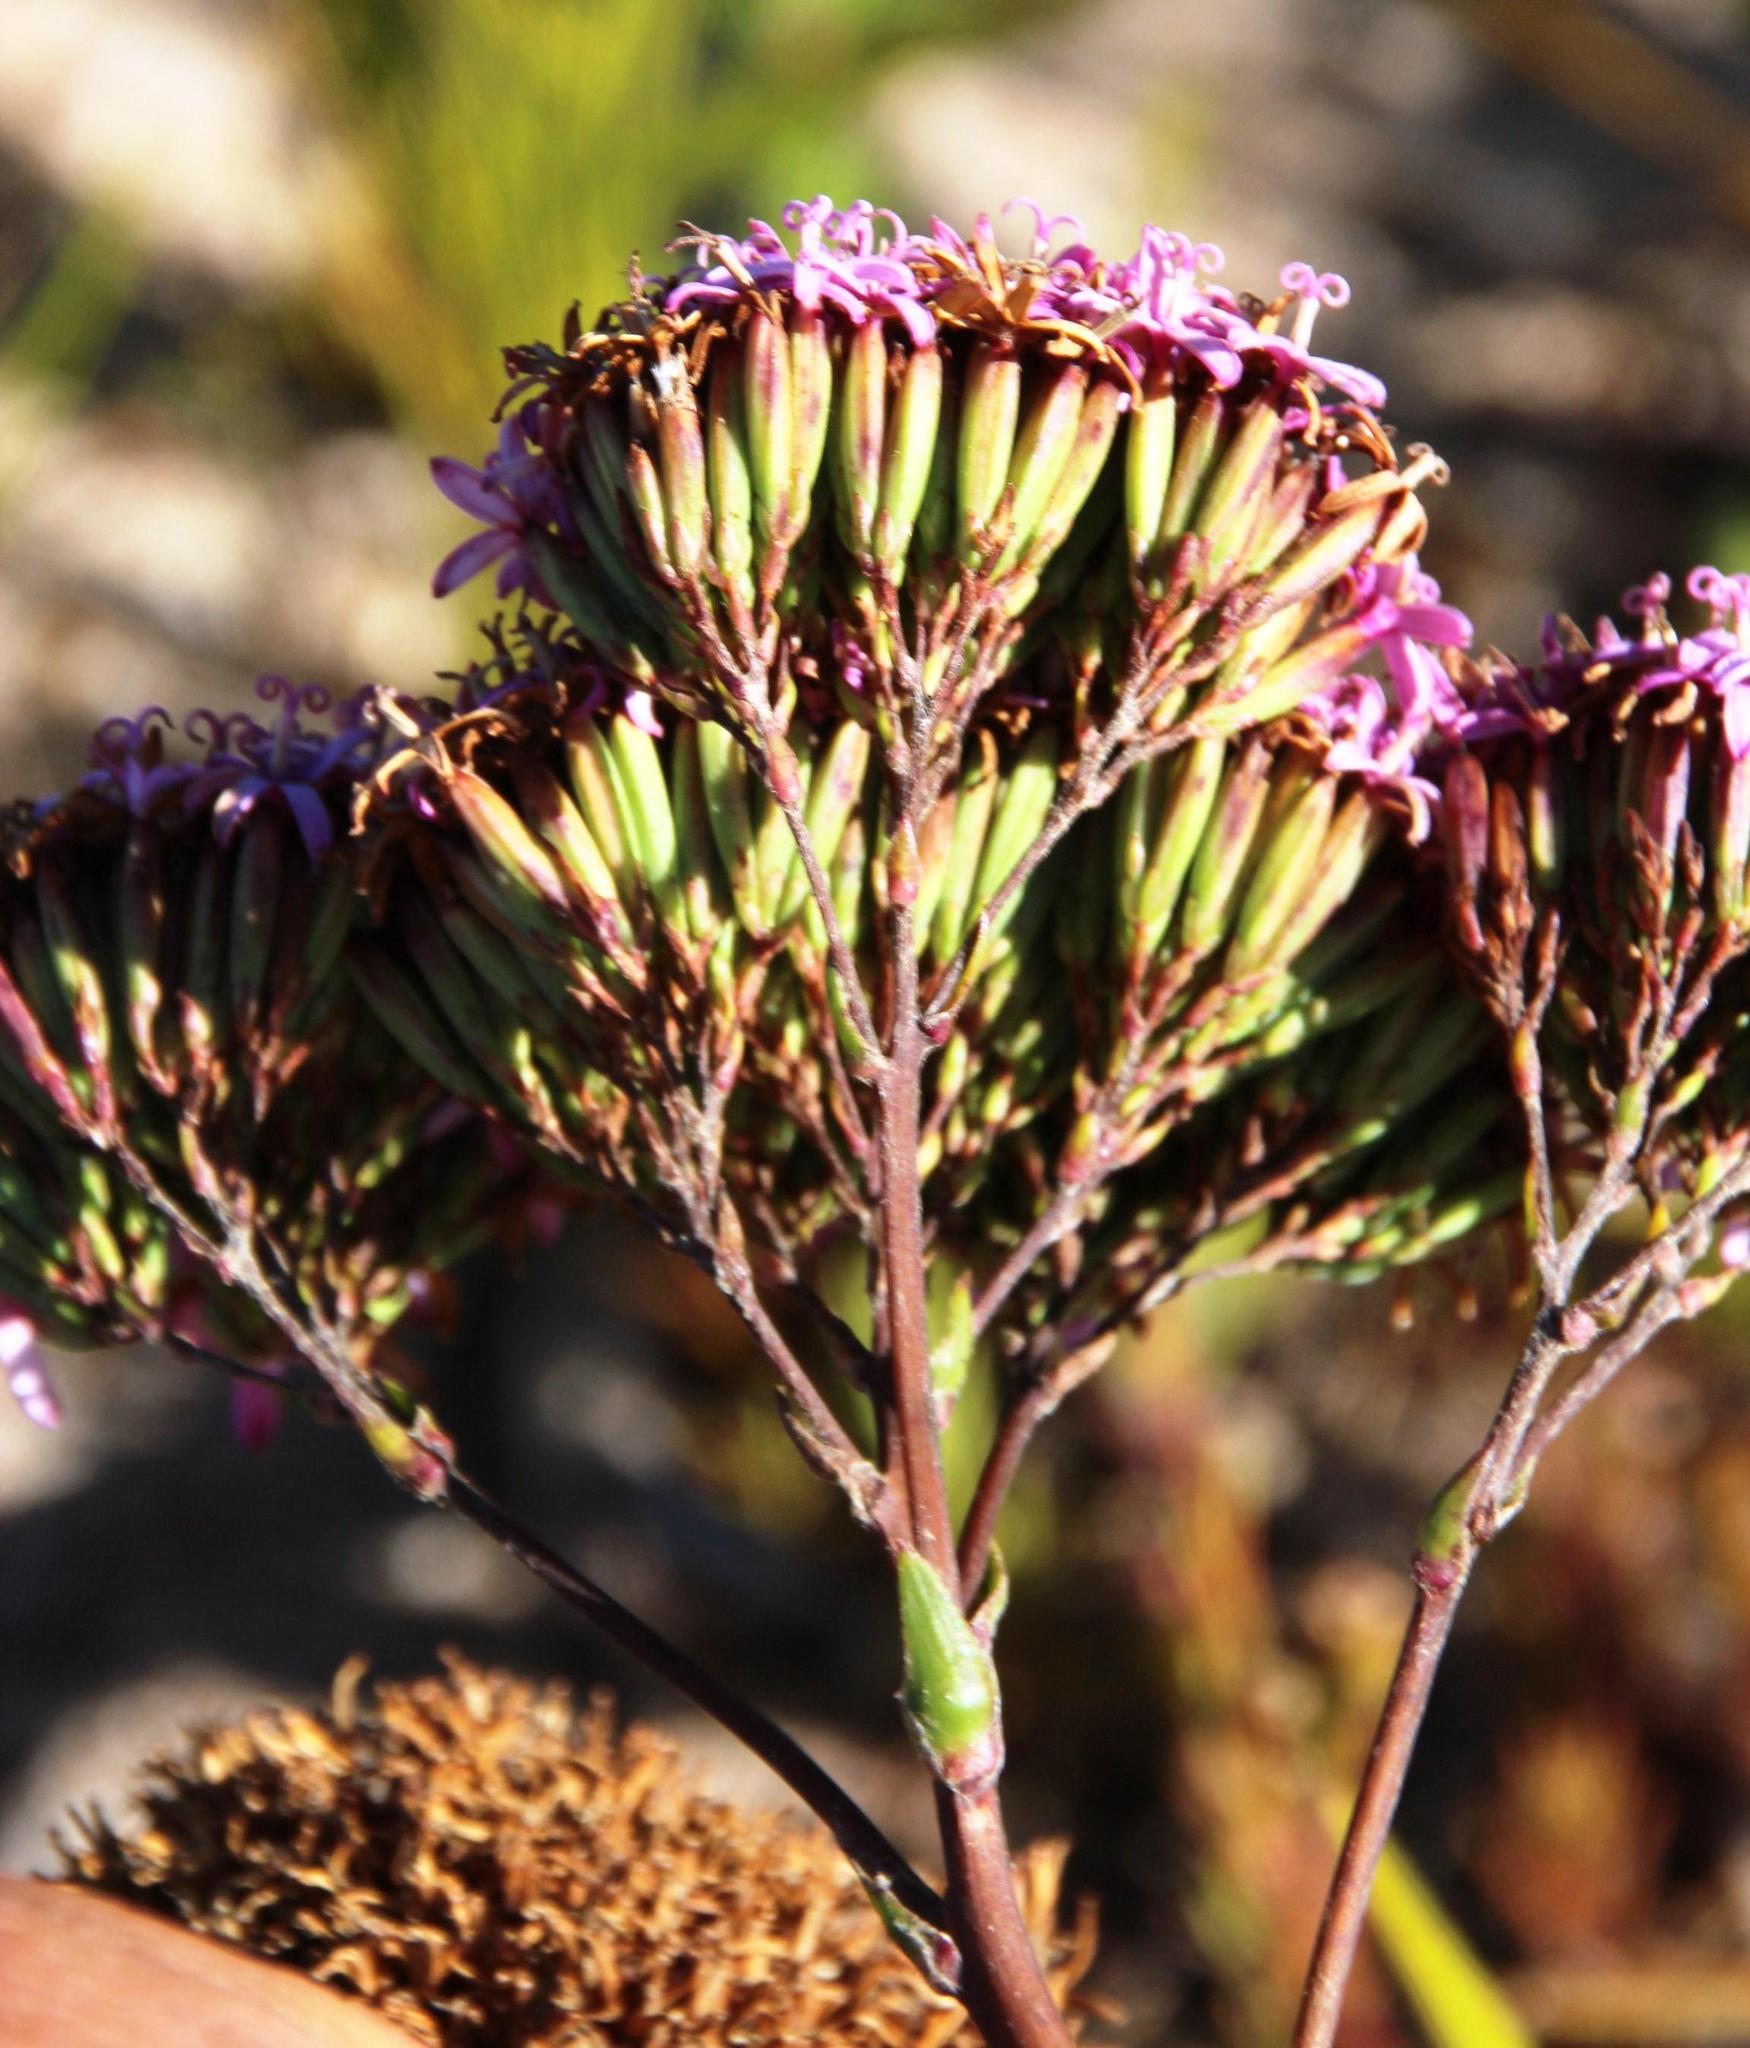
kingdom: Plantae
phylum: Tracheophyta
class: Magnoliopsida
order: Asterales
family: Asteraceae
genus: Corymbium
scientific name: Corymbium glabrum
